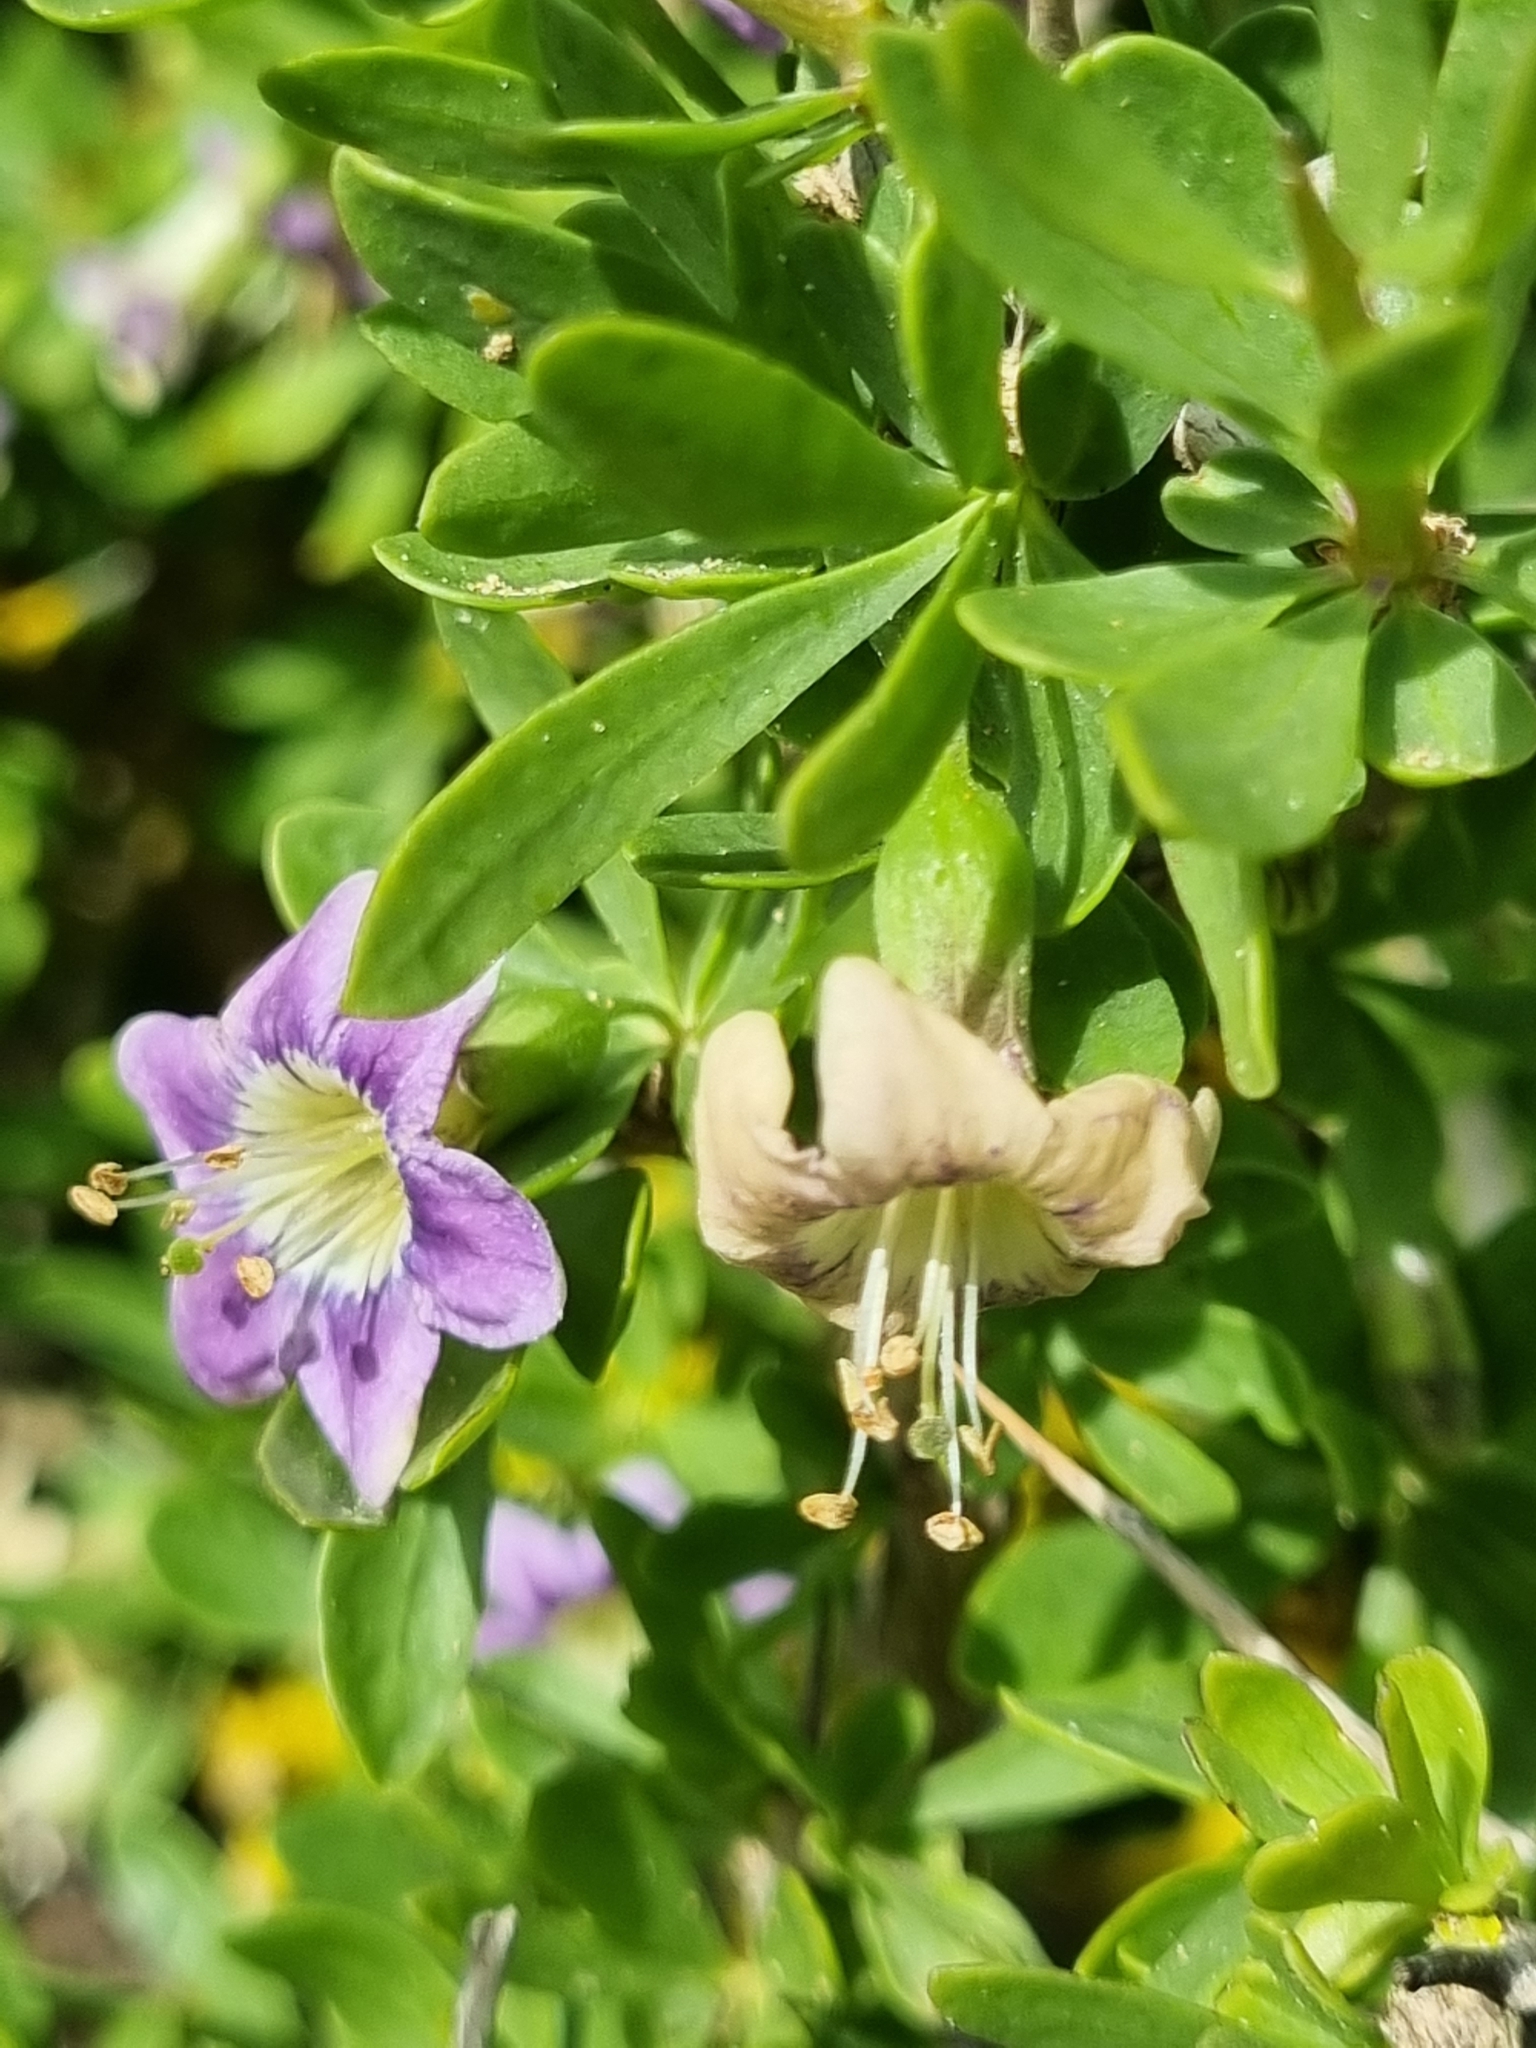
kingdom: Plantae
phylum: Tracheophyta
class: Magnoliopsida
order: Solanales
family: Solanaceae
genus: Lycium
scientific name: Lycium ferocissimum
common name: African boxthorn
